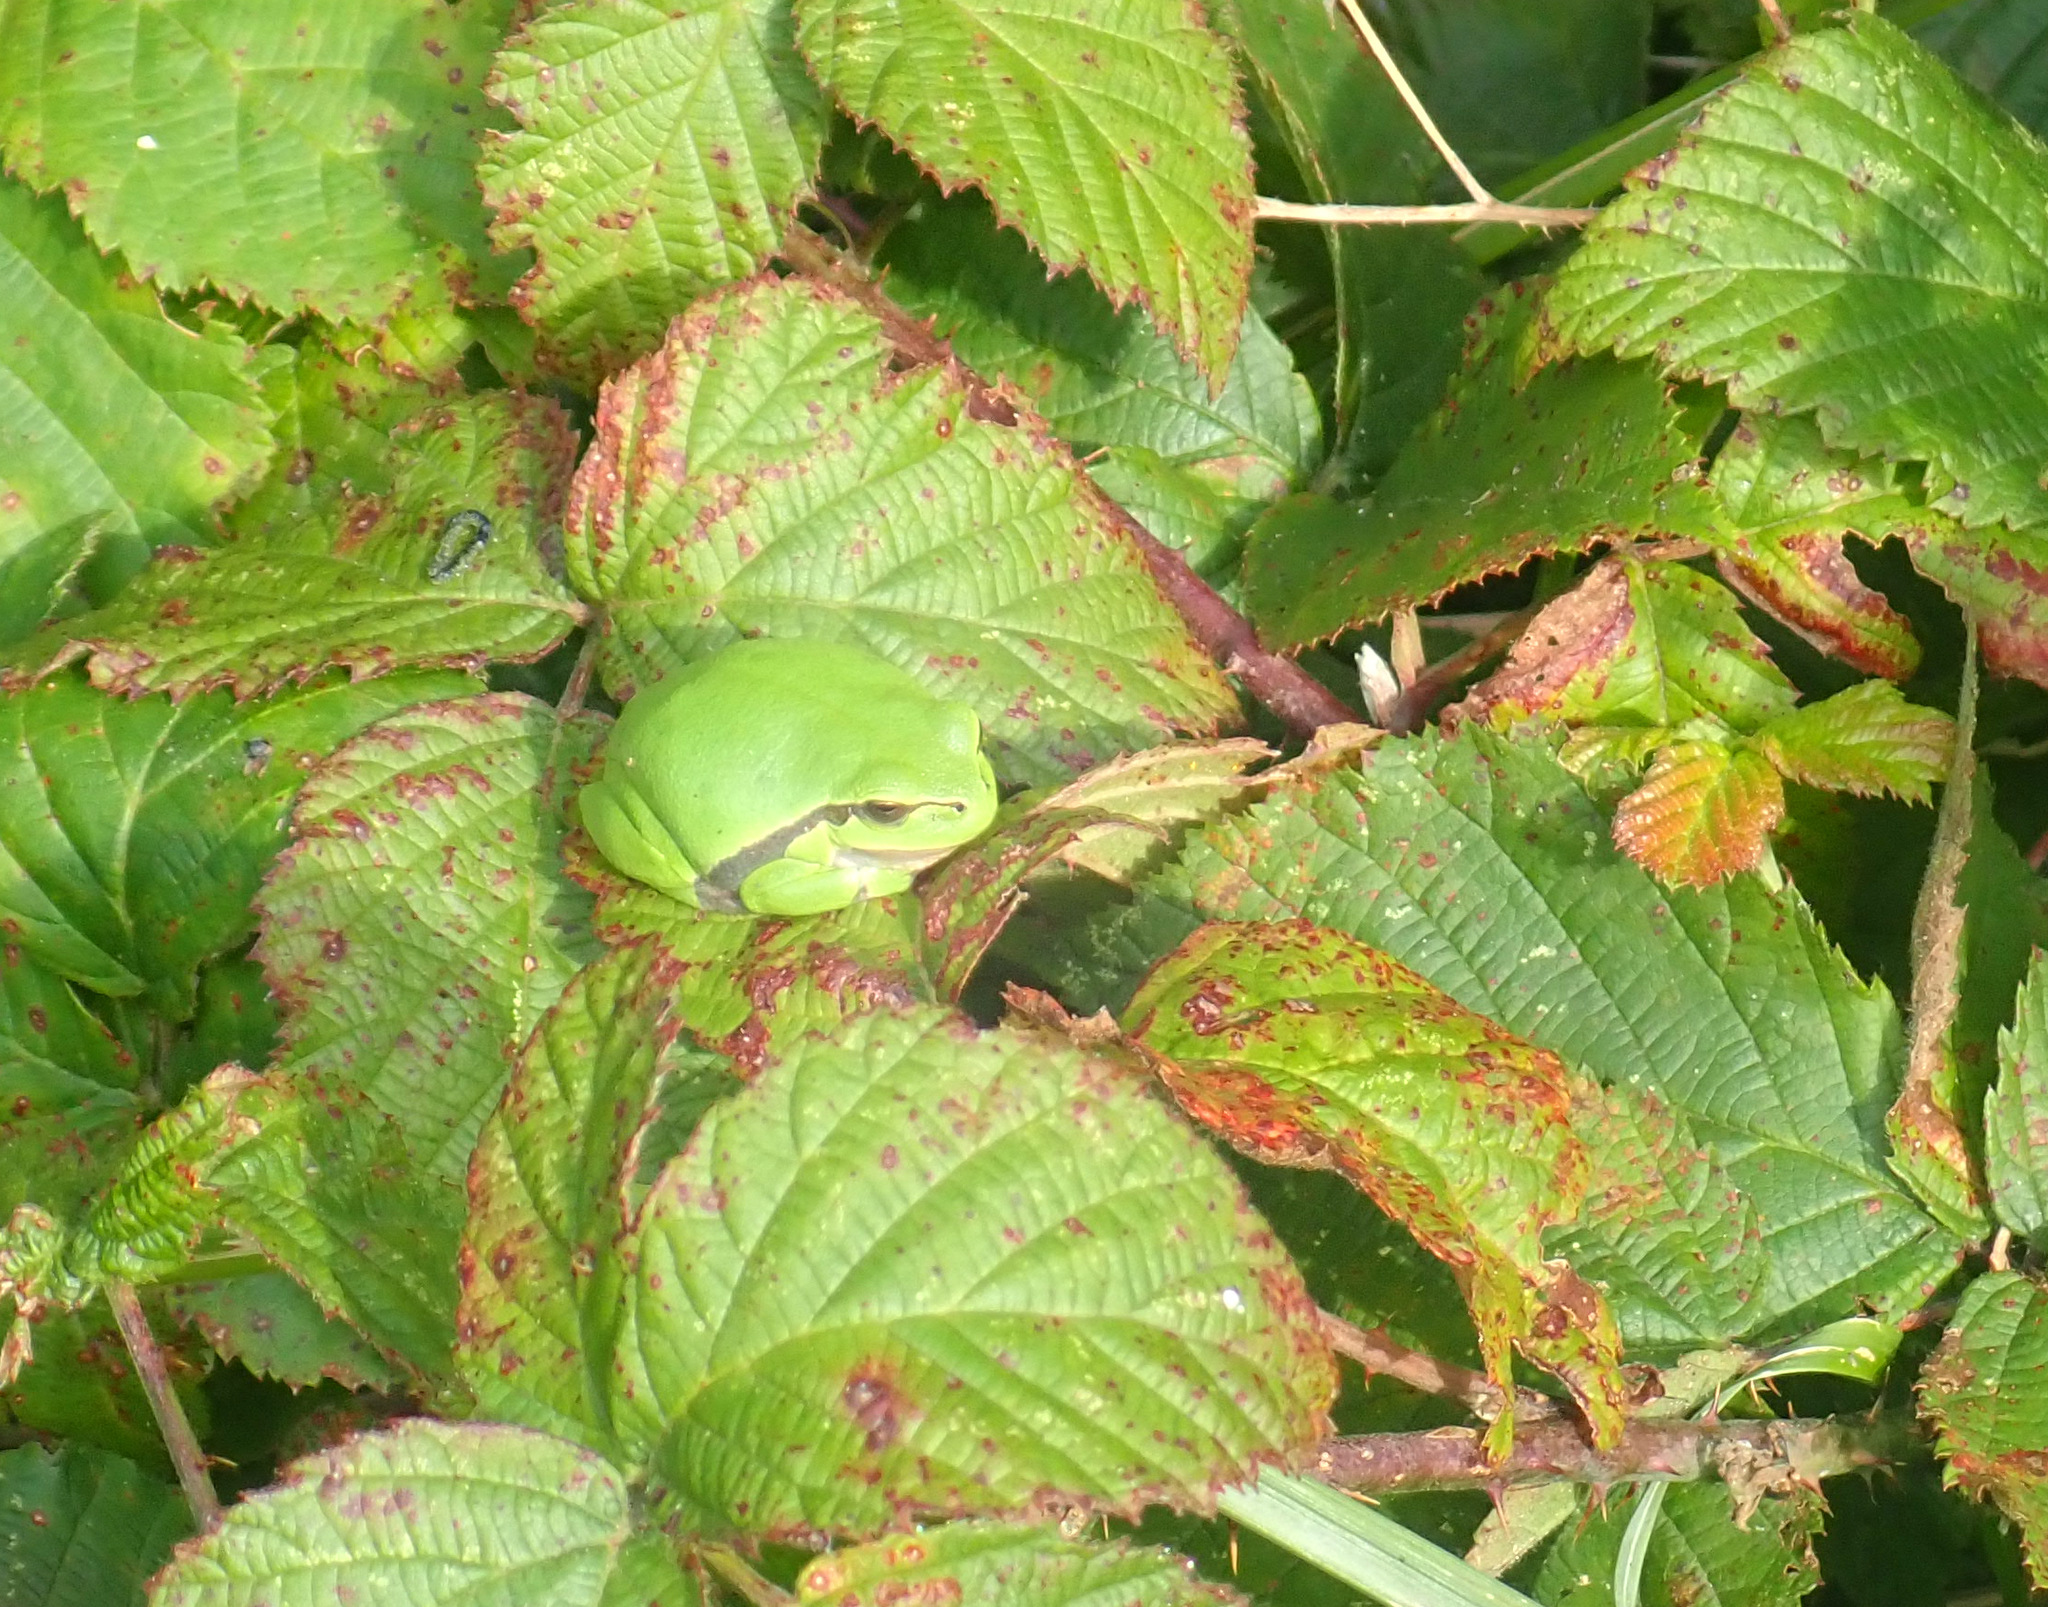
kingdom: Animalia
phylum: Chordata
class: Amphibia
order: Anura
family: Hylidae
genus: Hyla
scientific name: Hyla arborea
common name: Common tree frog
